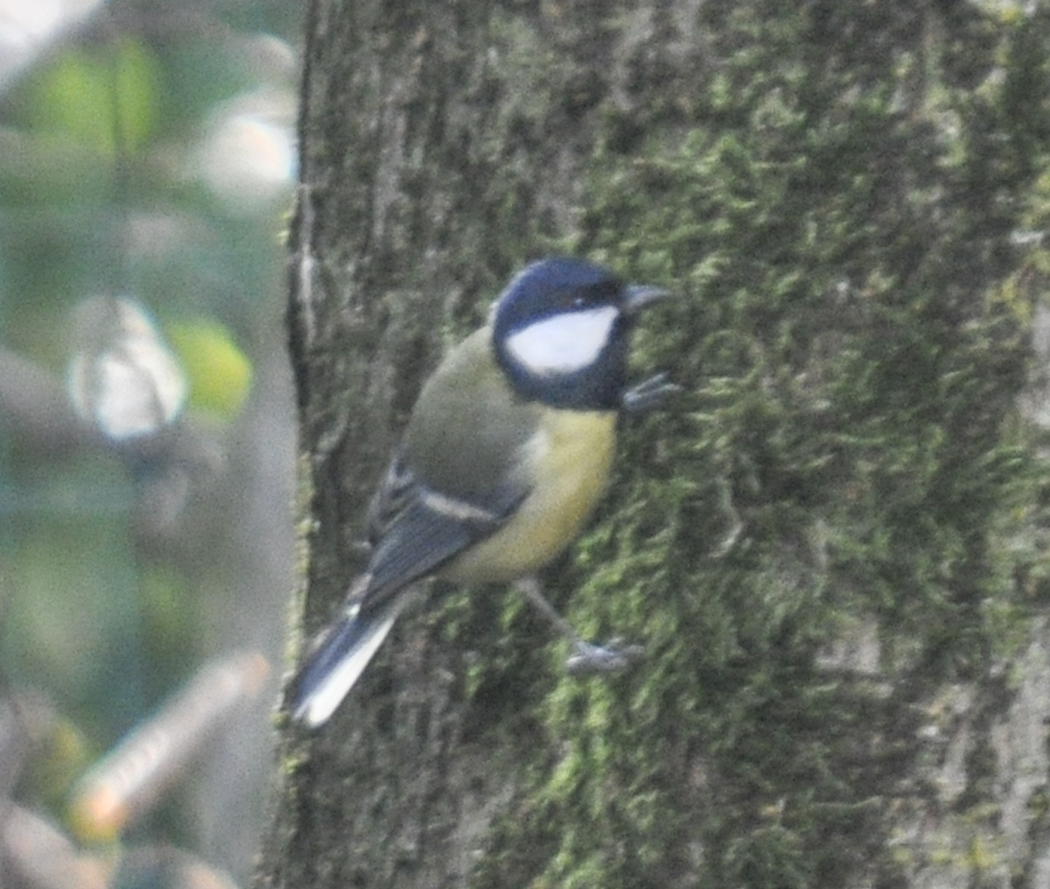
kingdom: Animalia
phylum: Chordata
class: Aves
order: Passeriformes
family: Paridae
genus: Parus
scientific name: Parus major
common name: Great tit
